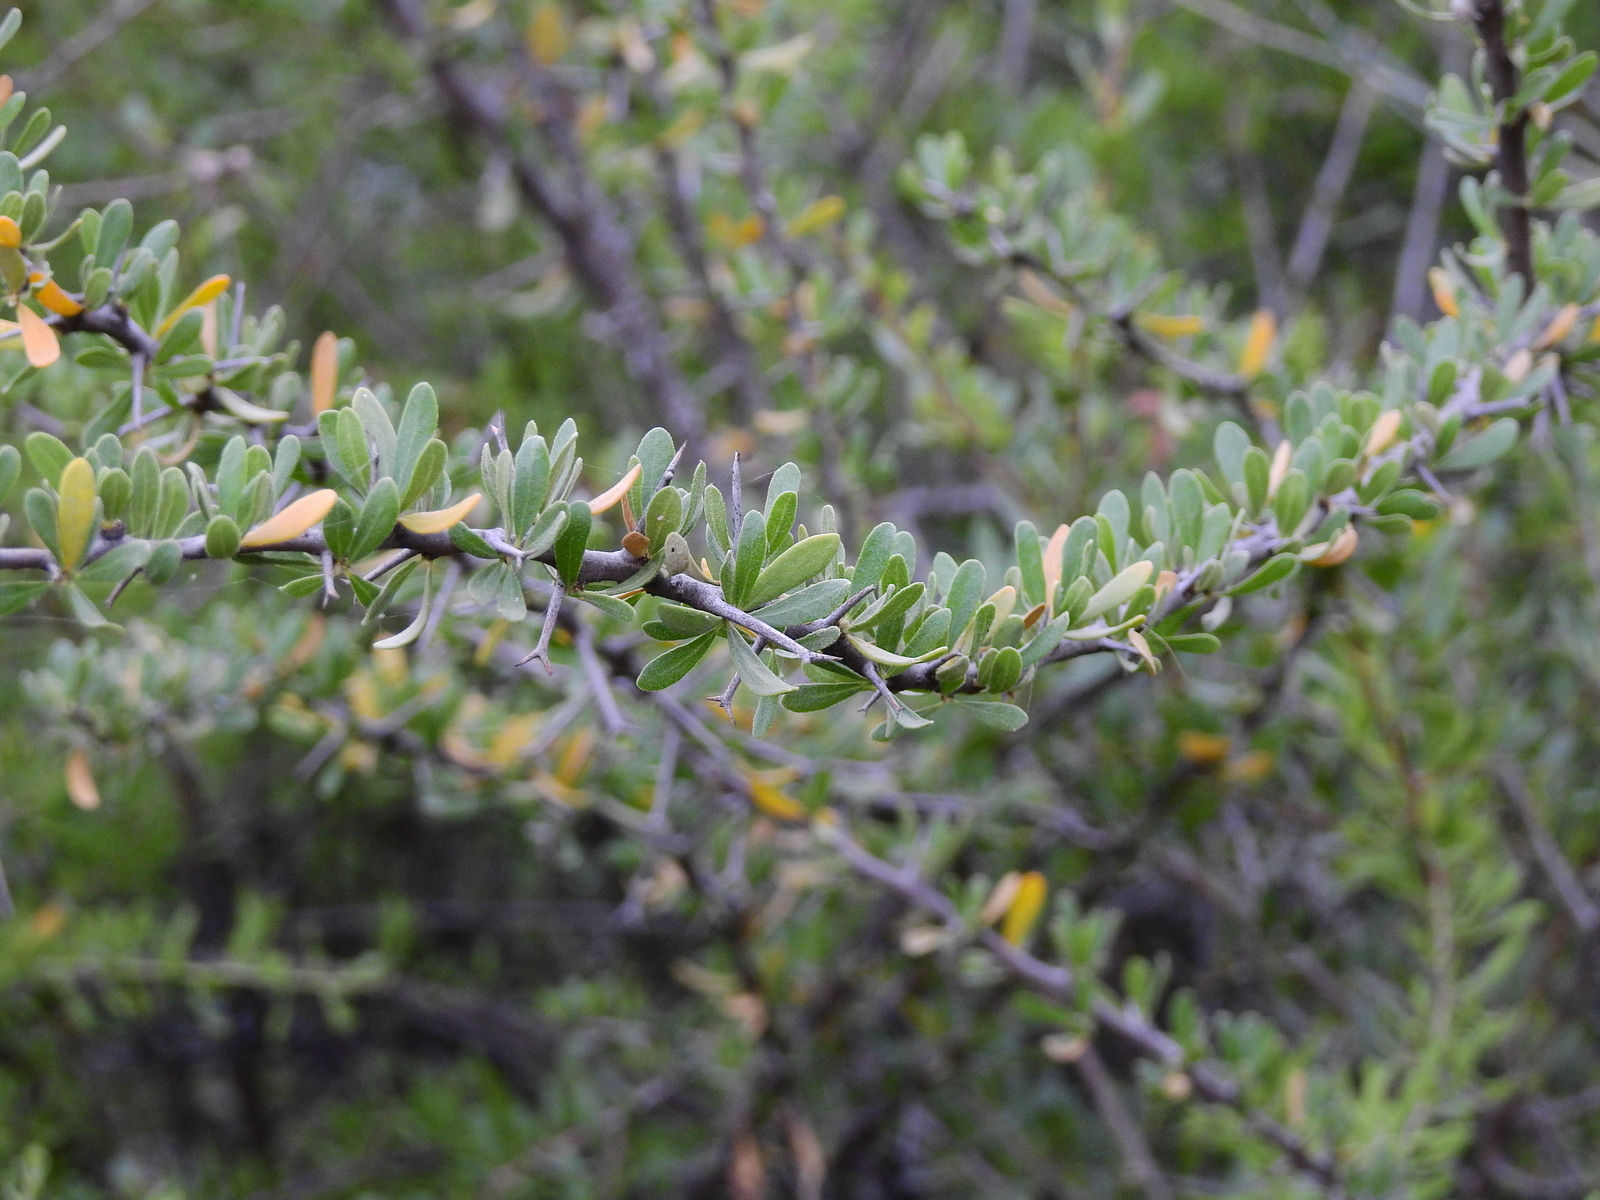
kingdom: Plantae
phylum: Tracheophyta
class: Magnoliopsida
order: Caryophyllales
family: Nyctaginaceae
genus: Bougainvillea
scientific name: Bougainvillea spinosa
